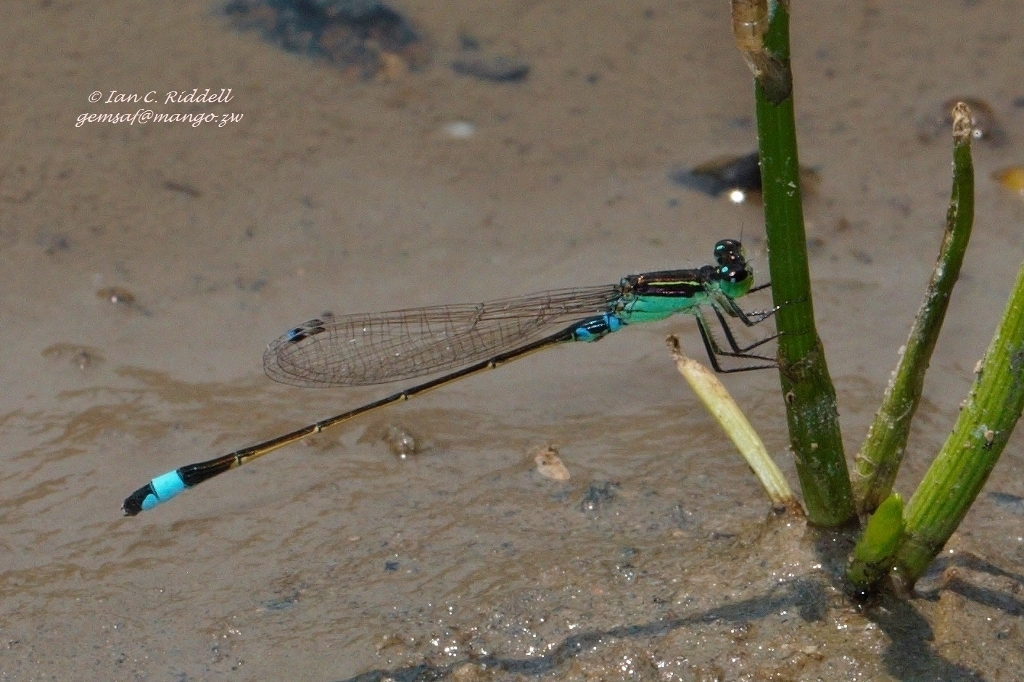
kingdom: Animalia
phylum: Arthropoda
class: Insecta
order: Odonata
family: Coenagrionidae
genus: Ischnura
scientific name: Ischnura senegalensis
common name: Tropical bluetail
